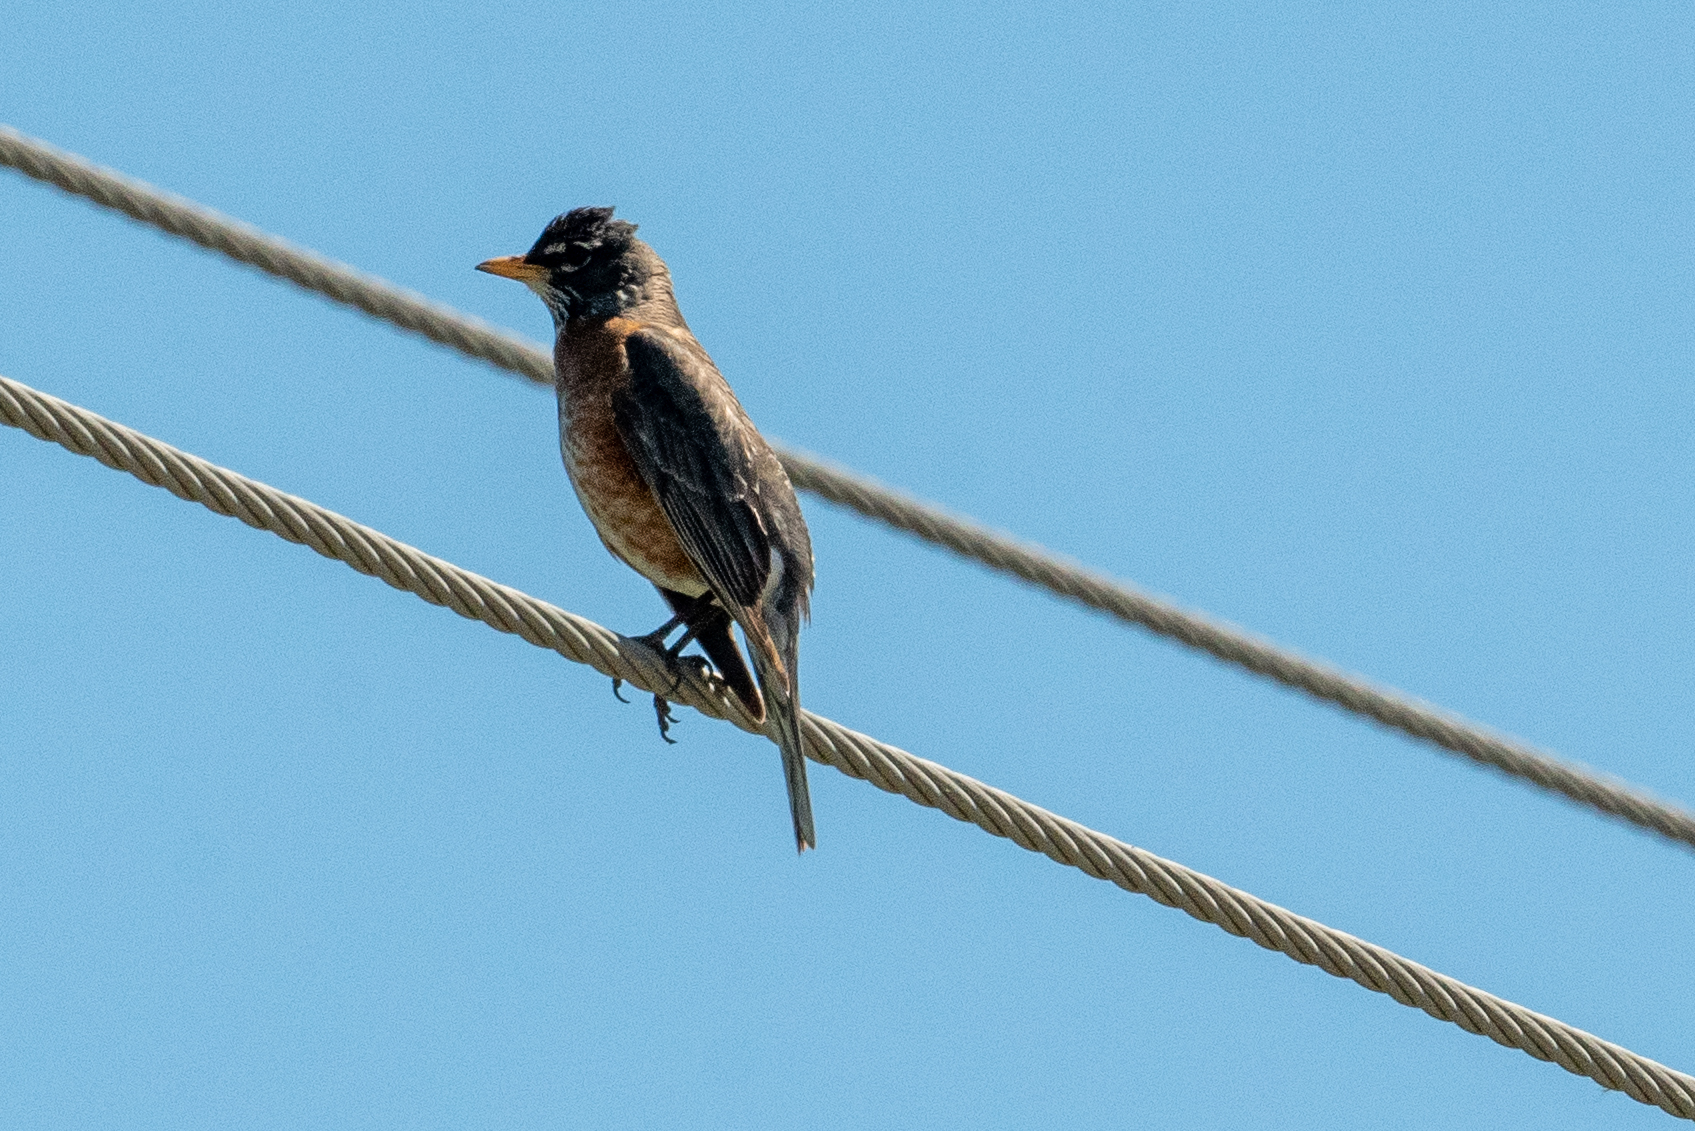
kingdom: Animalia
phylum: Chordata
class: Aves
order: Passeriformes
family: Turdidae
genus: Turdus
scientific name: Turdus migratorius
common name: American robin
